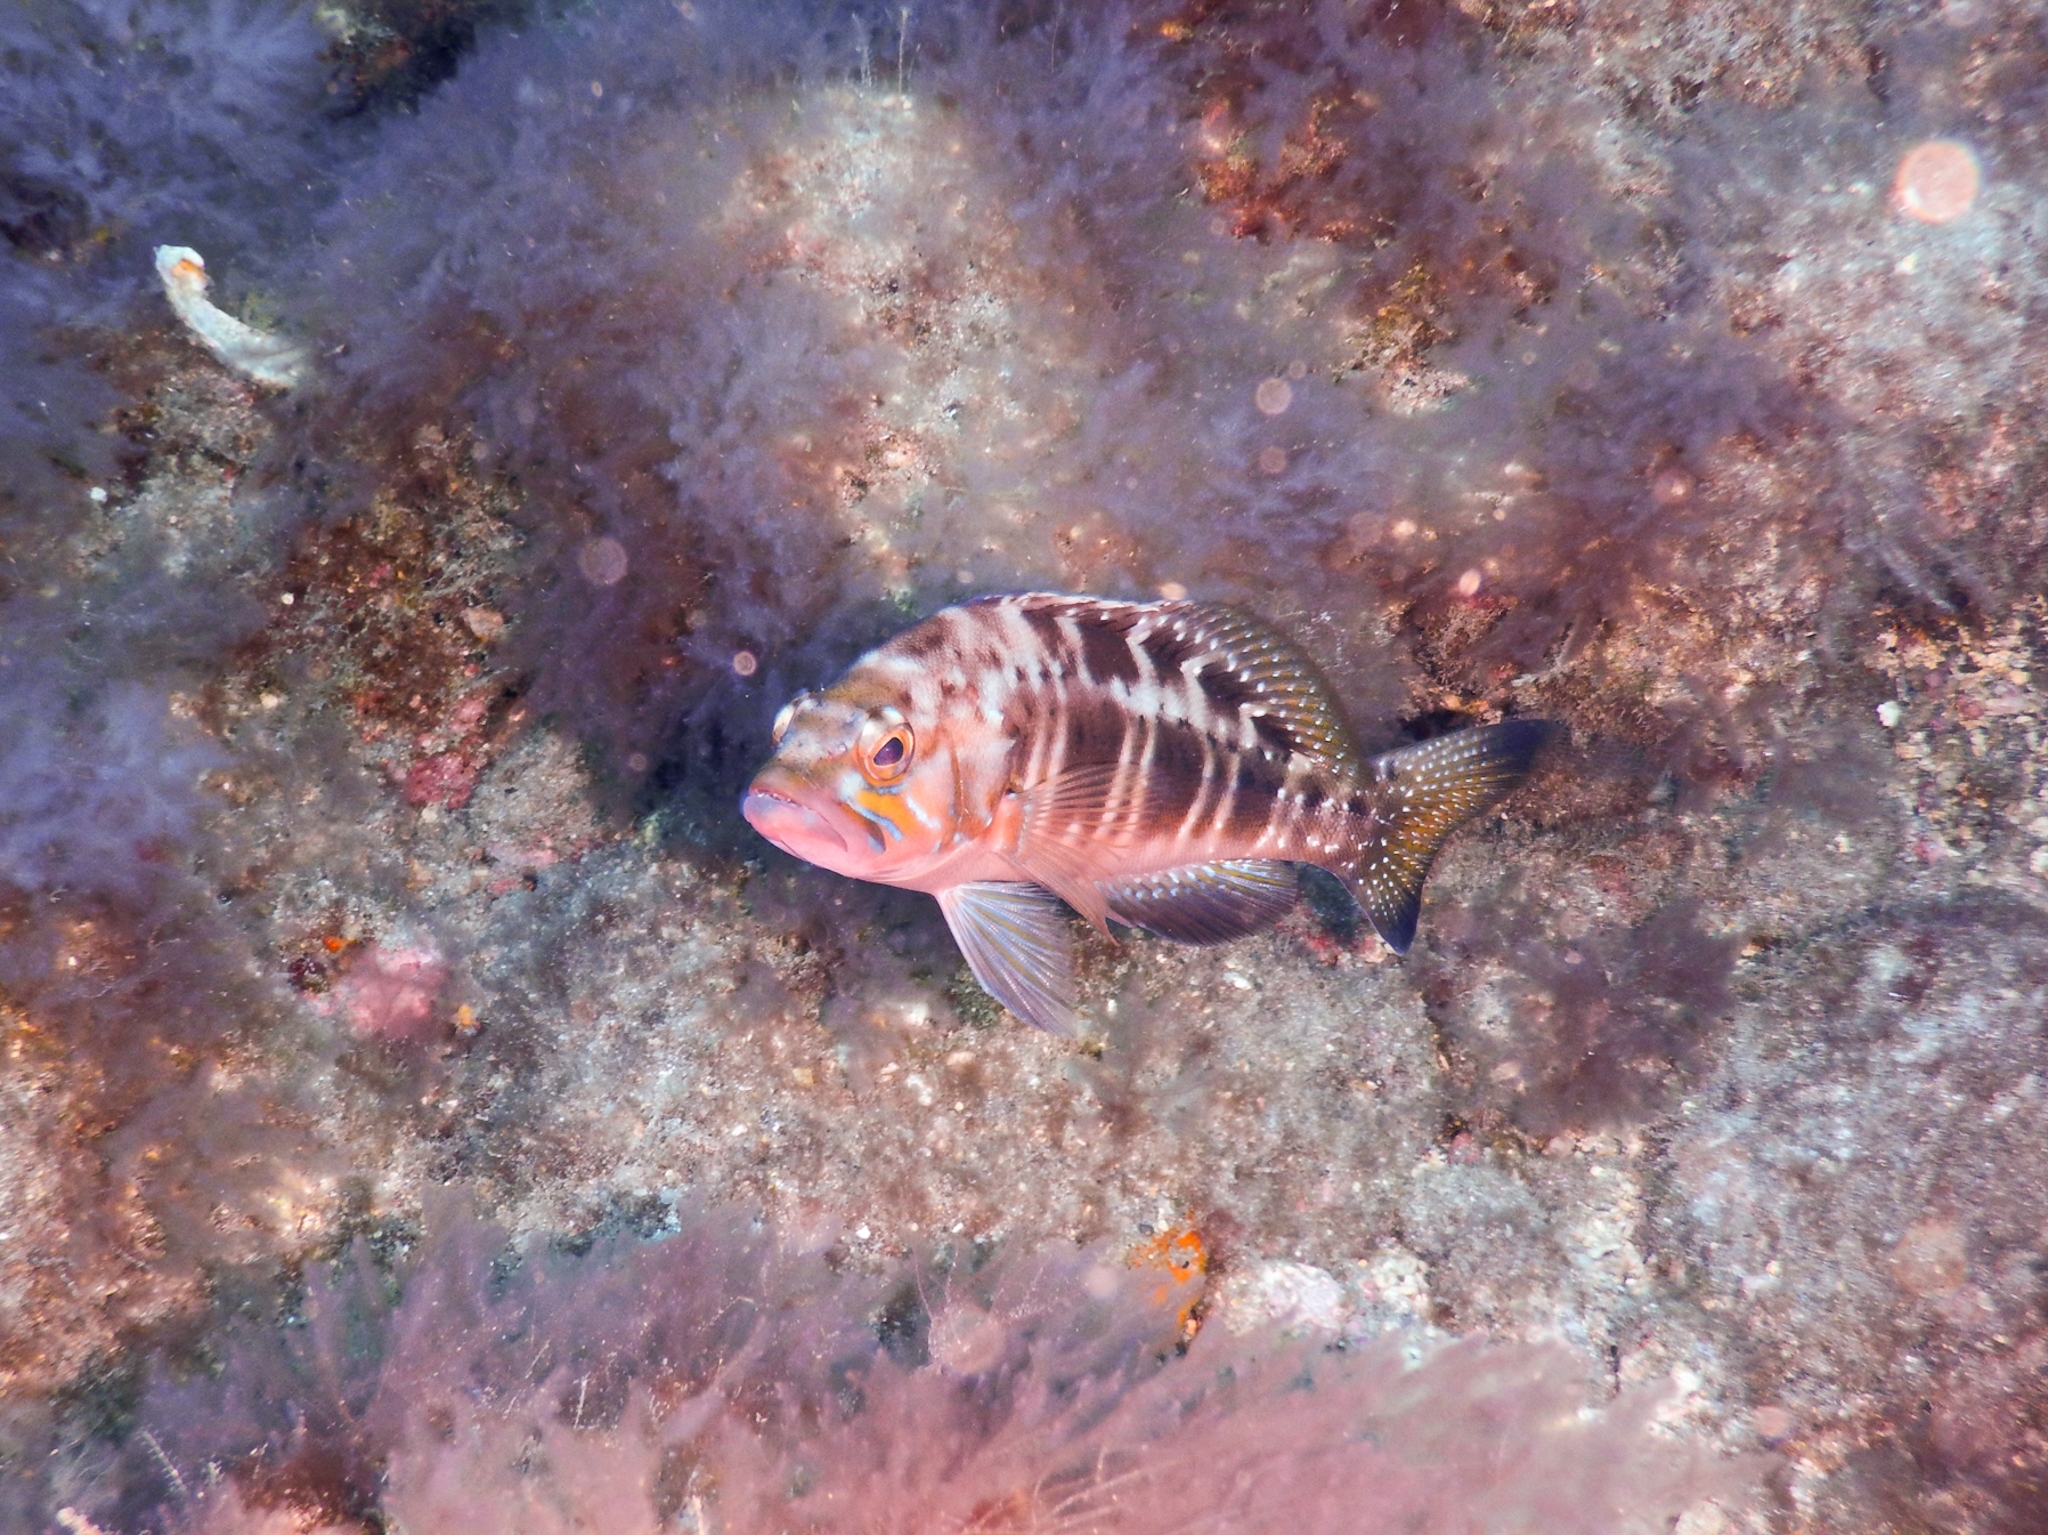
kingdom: Animalia
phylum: Chordata
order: Perciformes
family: Serranidae
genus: Serranus
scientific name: Serranus atricauda
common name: Blacktail comber
